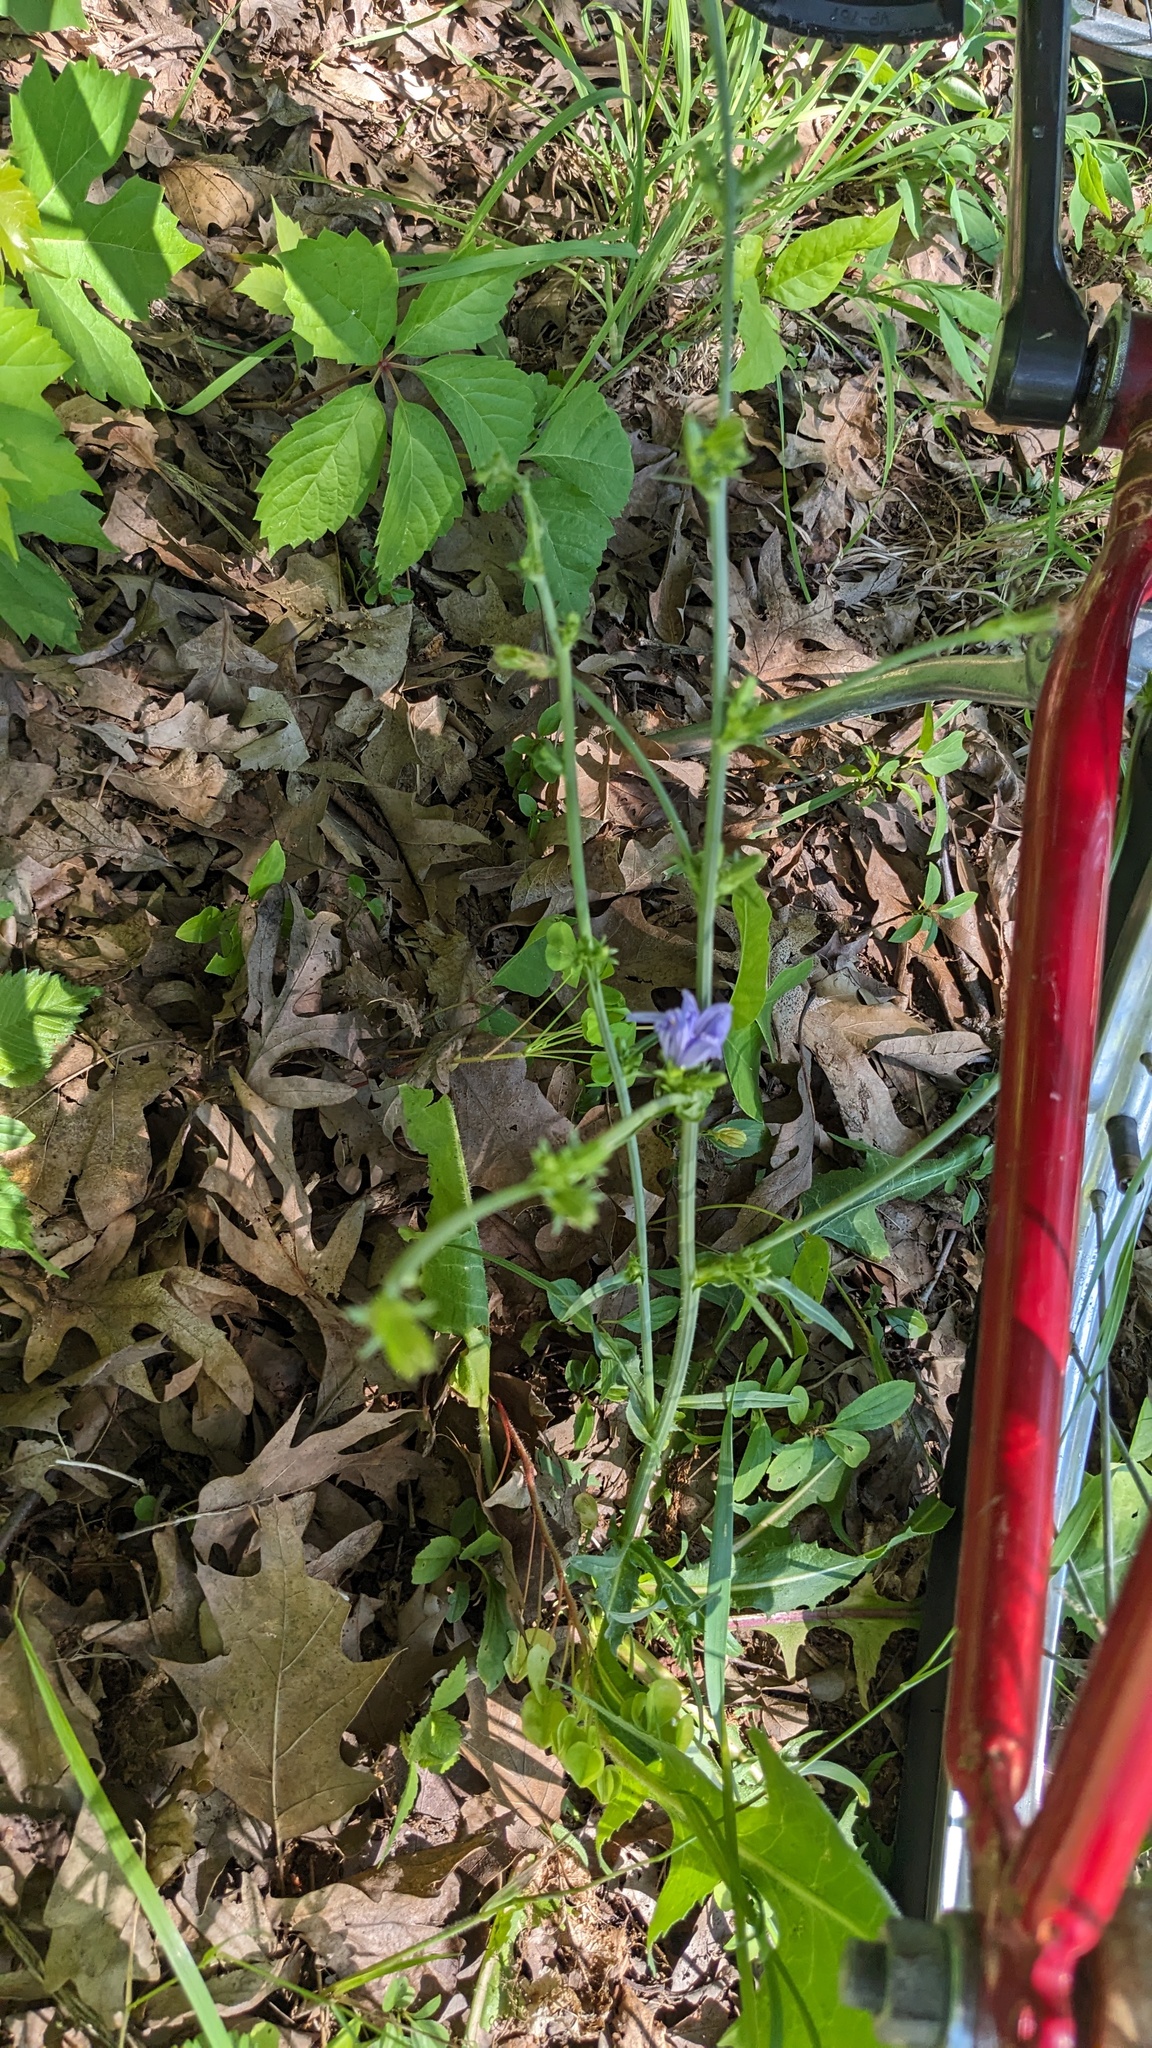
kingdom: Plantae
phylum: Tracheophyta
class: Magnoliopsida
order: Asterales
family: Asteraceae
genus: Cichorium
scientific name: Cichorium intybus
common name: Chicory
